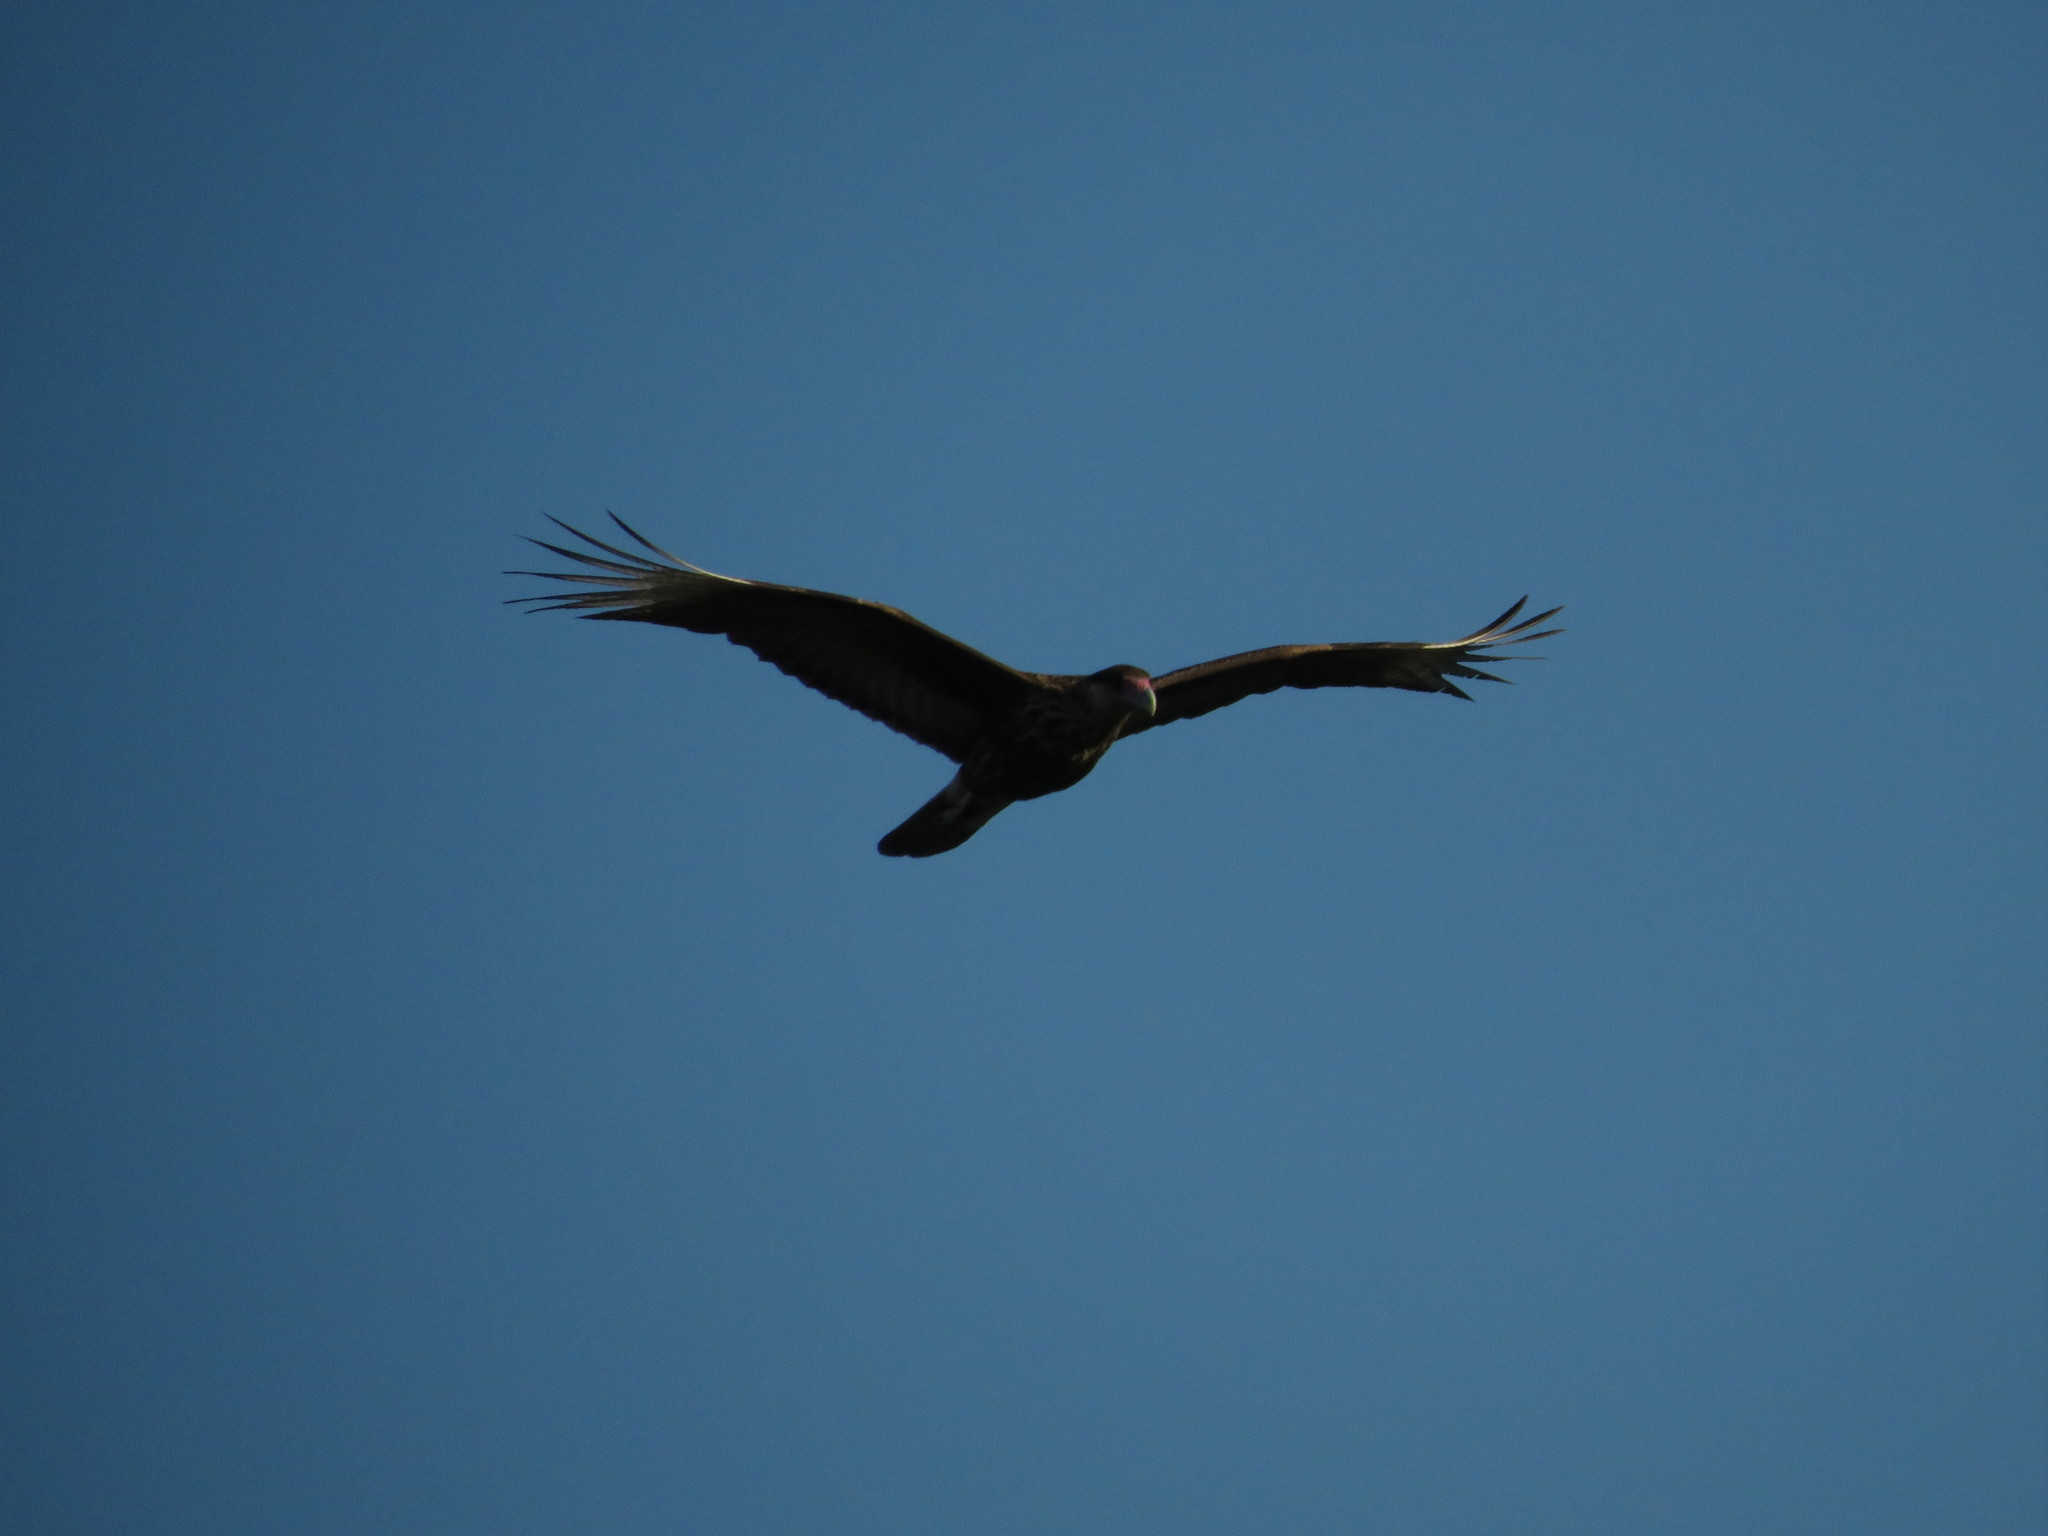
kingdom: Animalia
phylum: Chordata
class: Aves
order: Falconiformes
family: Falconidae
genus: Caracara
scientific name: Caracara plancus
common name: Southern caracara
